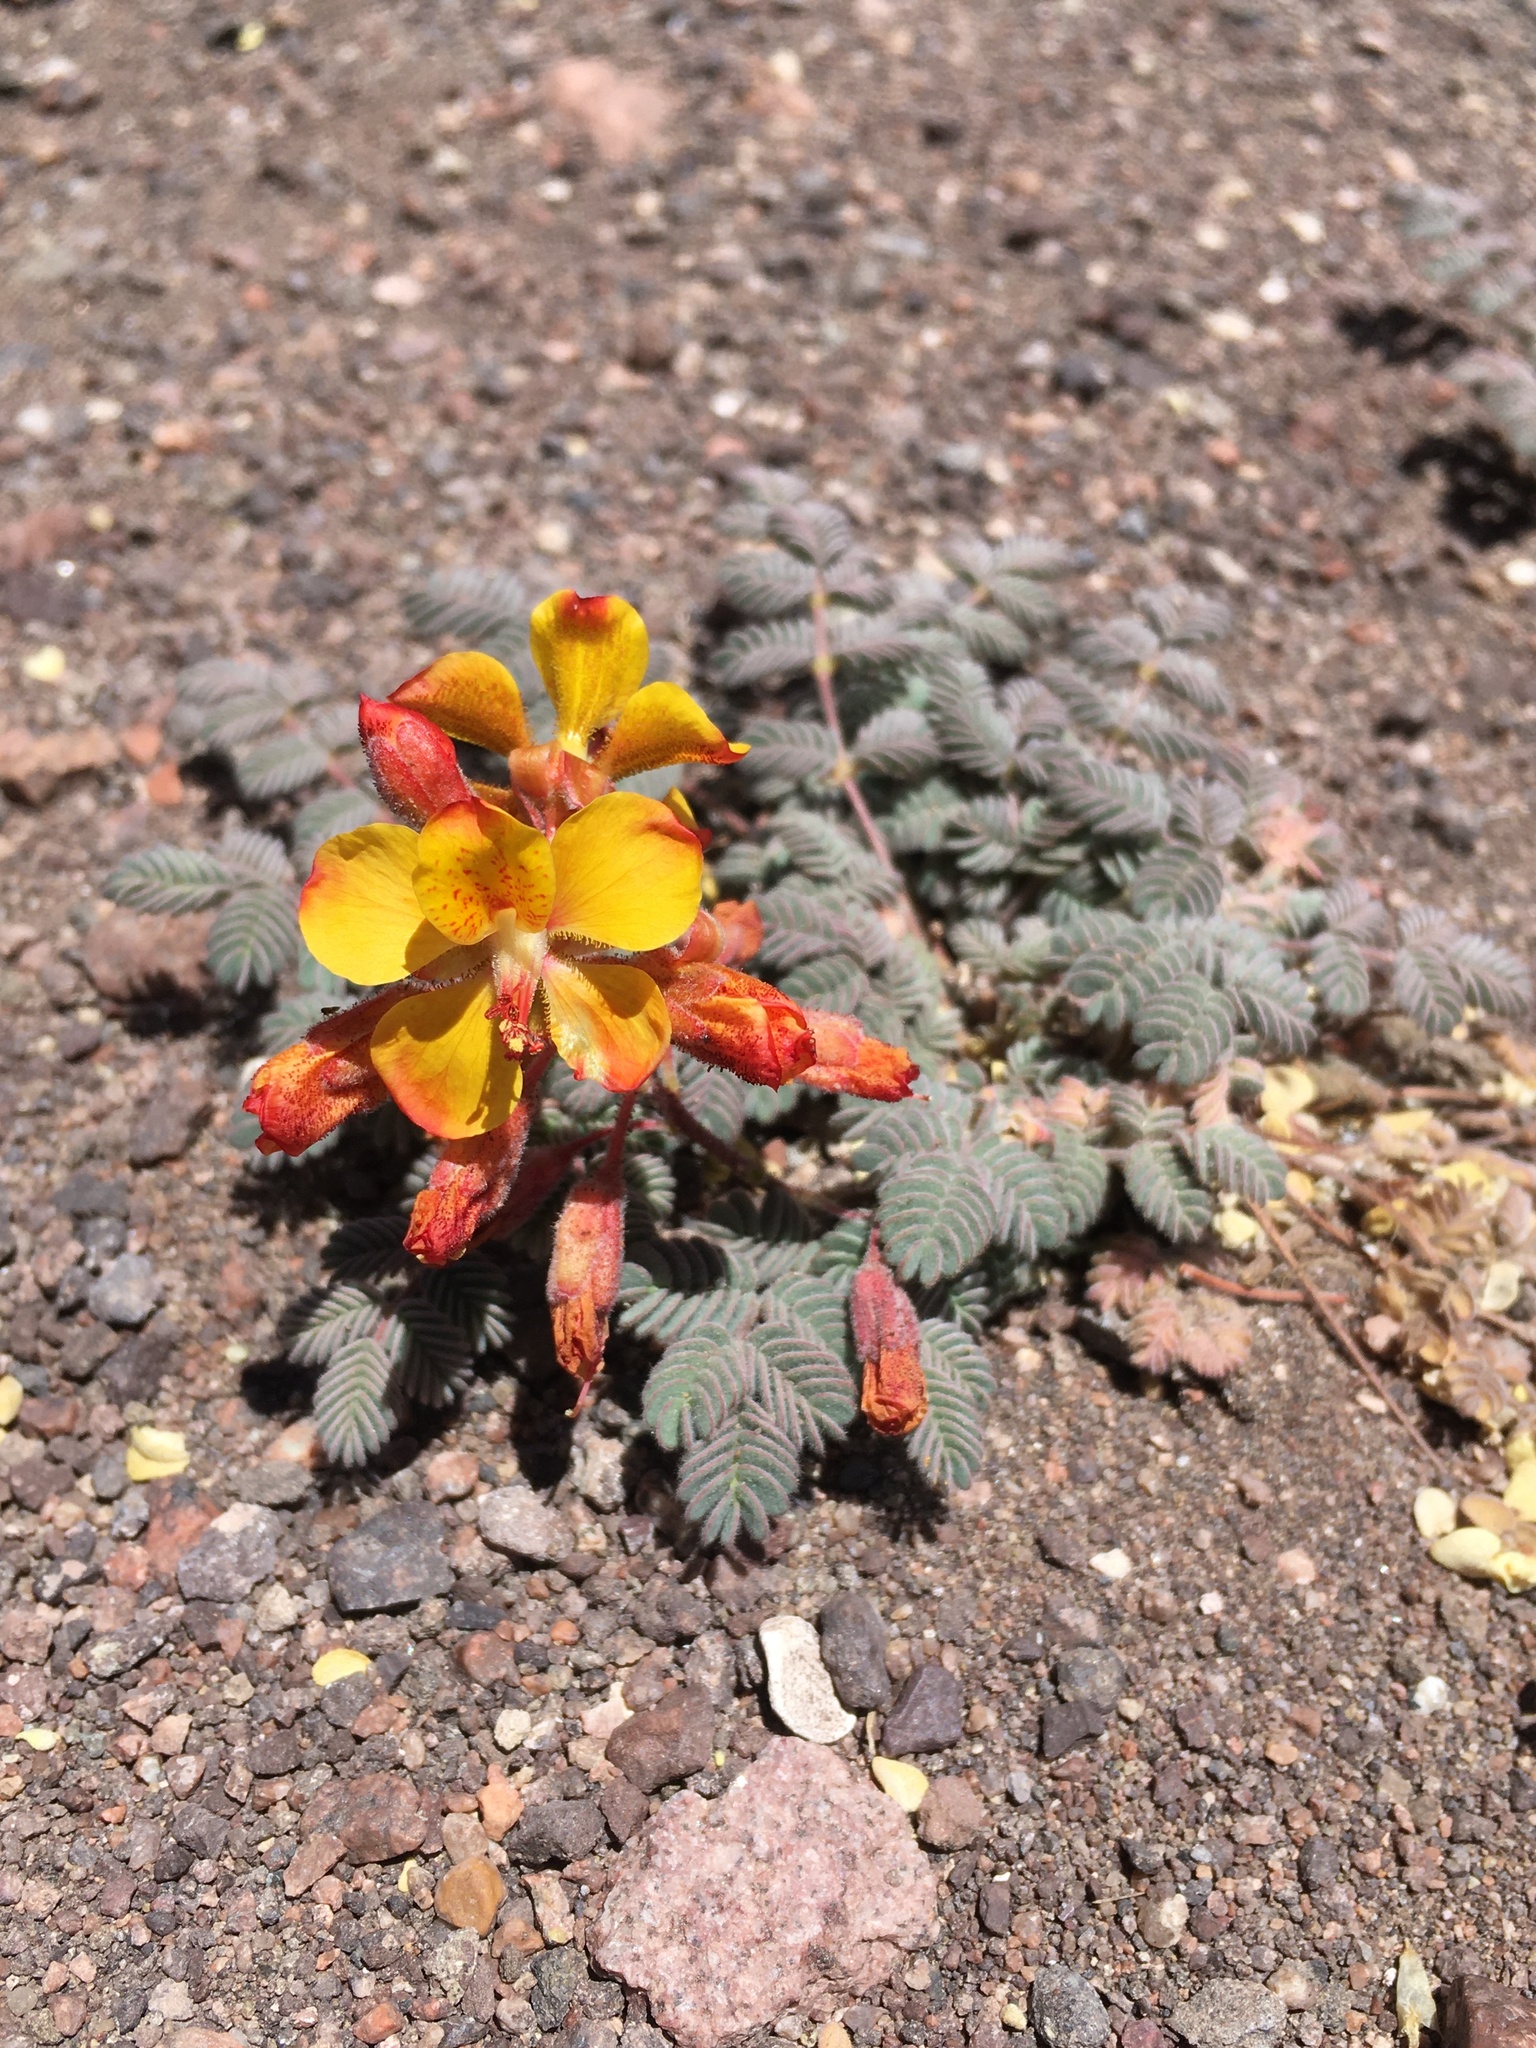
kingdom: Plantae
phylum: Tracheophyta
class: Magnoliopsida
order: Fabales
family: Fabaceae
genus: Hoffmannseggia
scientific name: Hoffmannseggia doellii
